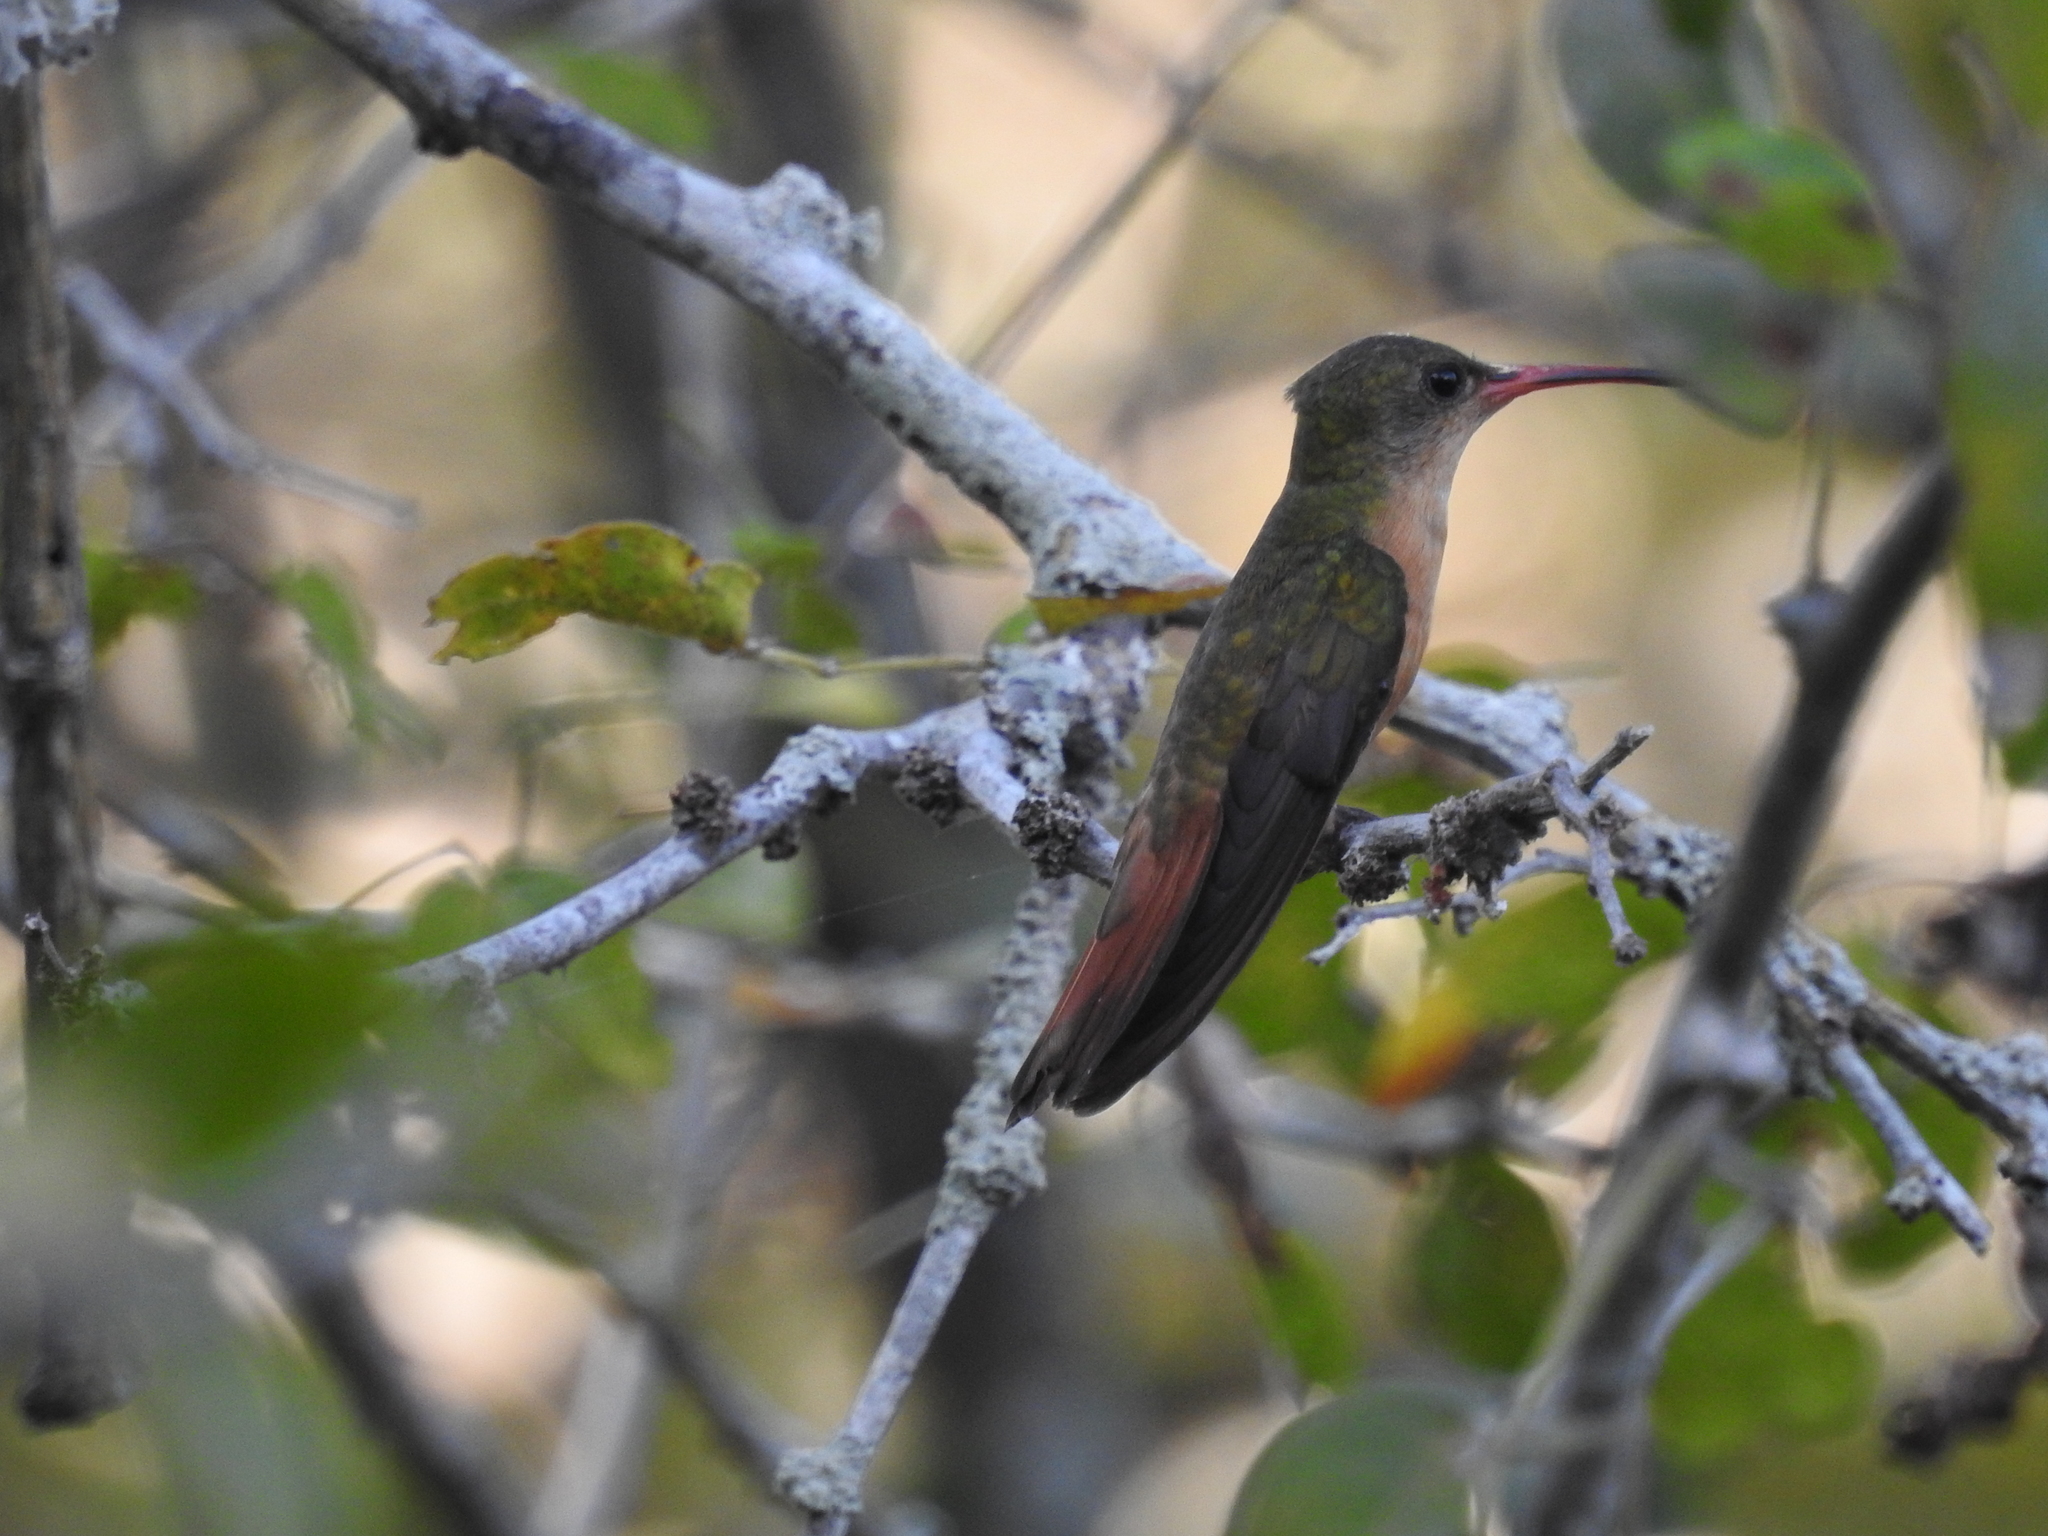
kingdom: Animalia
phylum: Chordata
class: Aves
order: Apodiformes
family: Trochilidae
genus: Amazilia
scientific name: Amazilia rutila
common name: Cinnamon hummingbird
